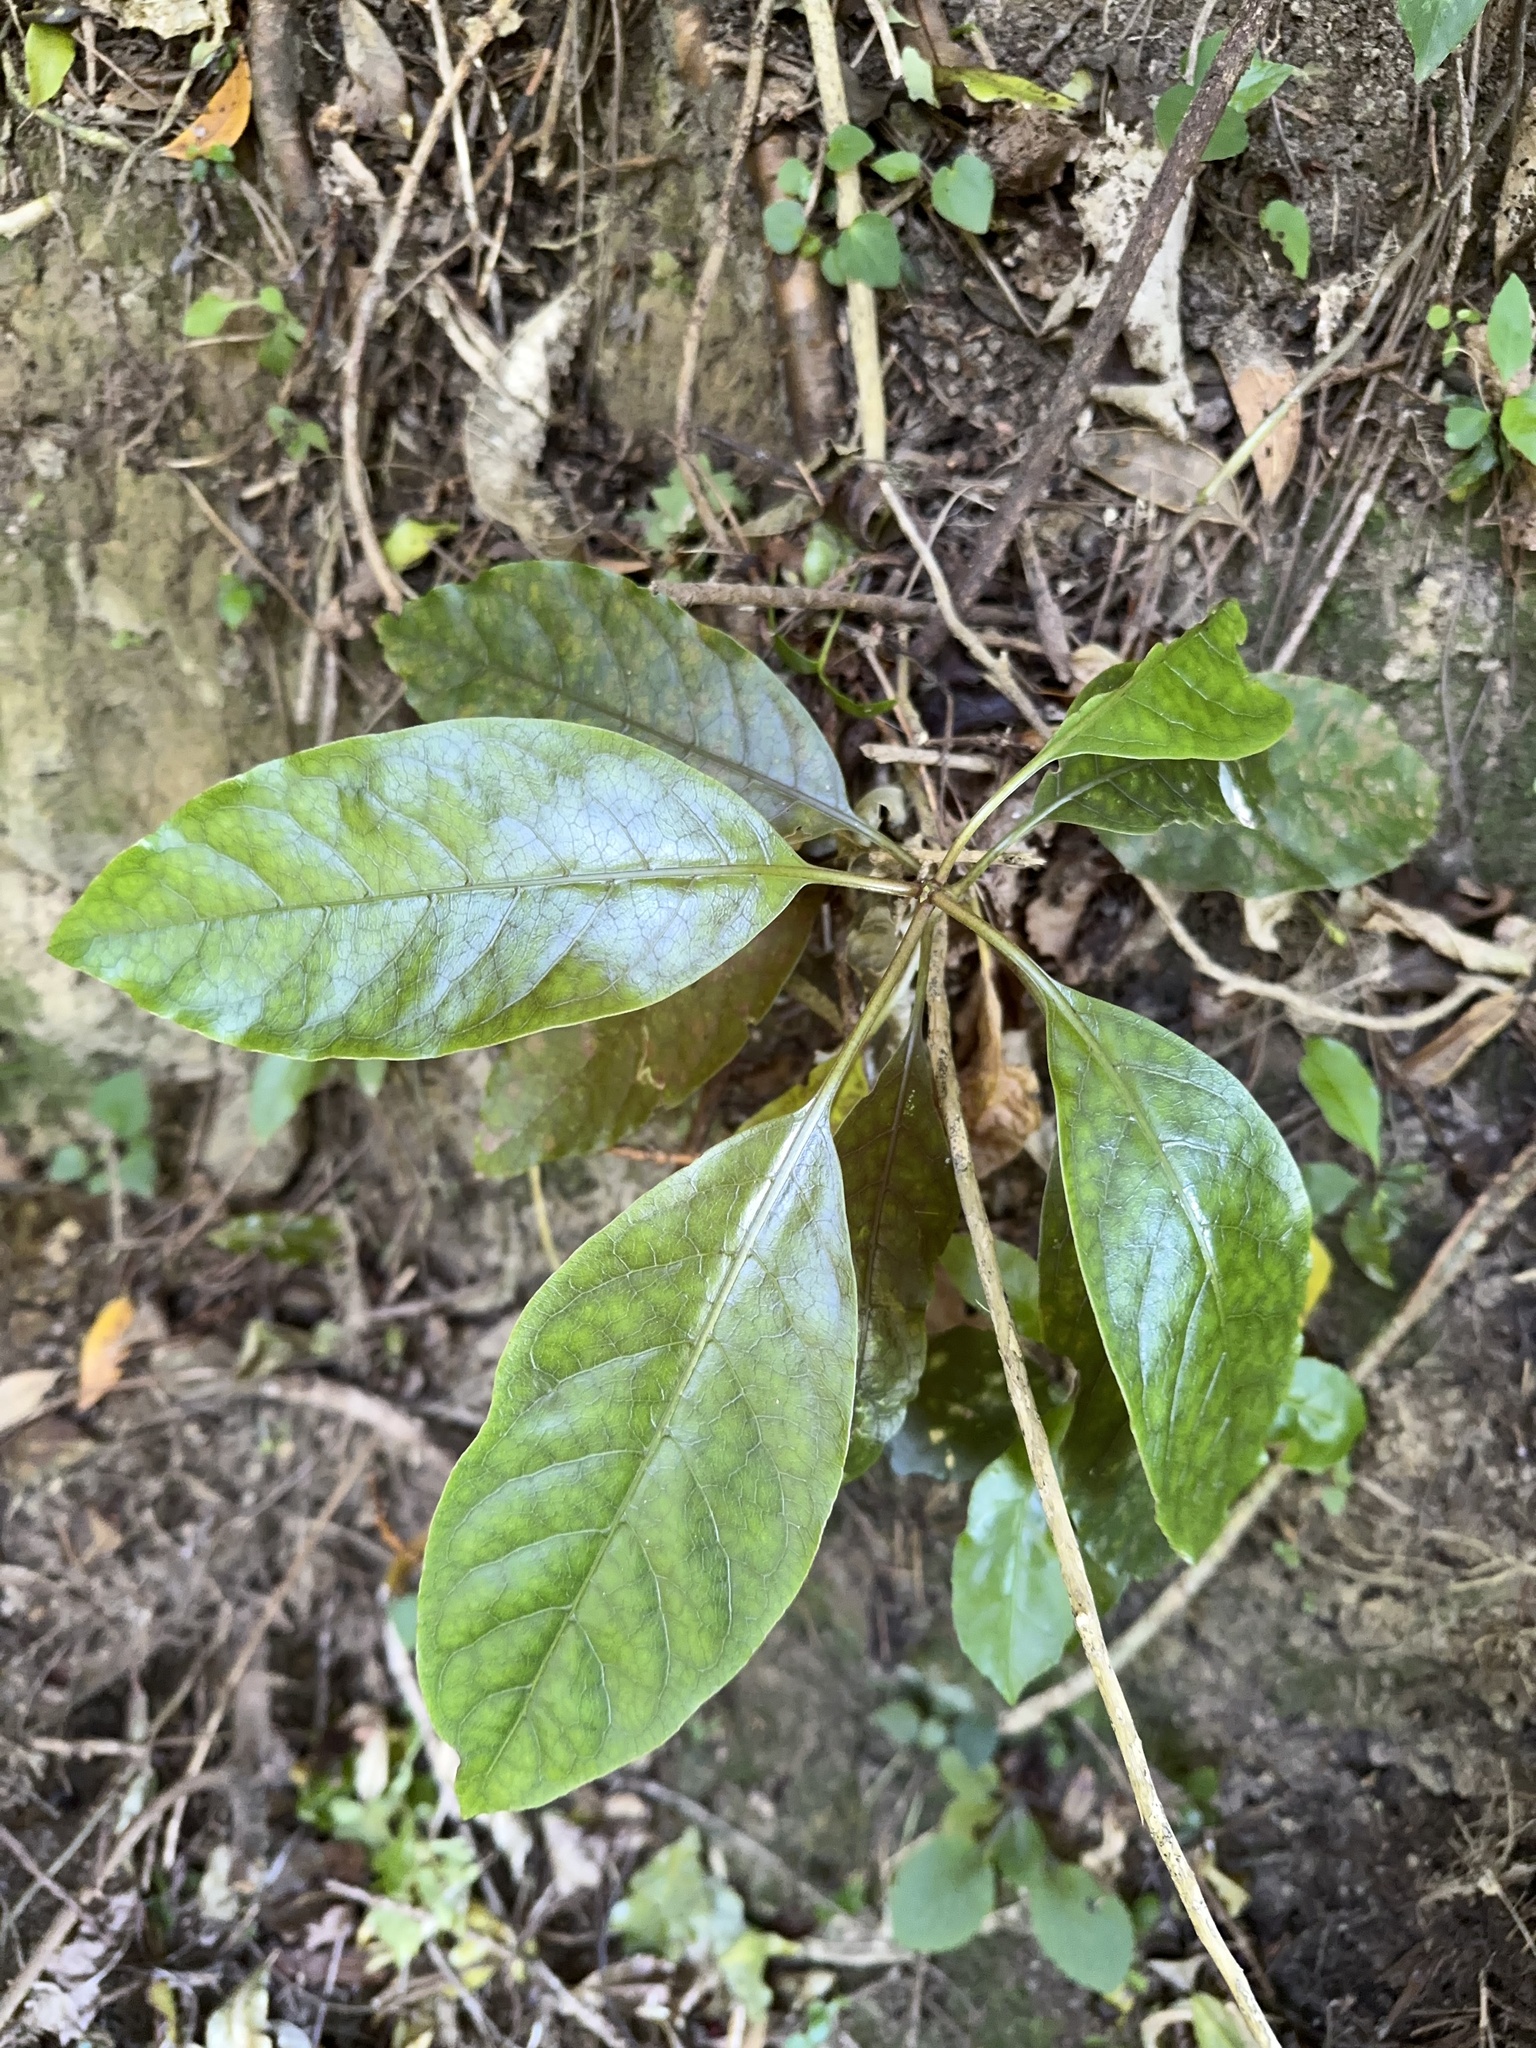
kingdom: Plantae
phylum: Tracheophyta
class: Magnoliopsida
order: Gentianales
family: Rubiaceae
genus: Coprosma
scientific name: Coprosma autumnalis
